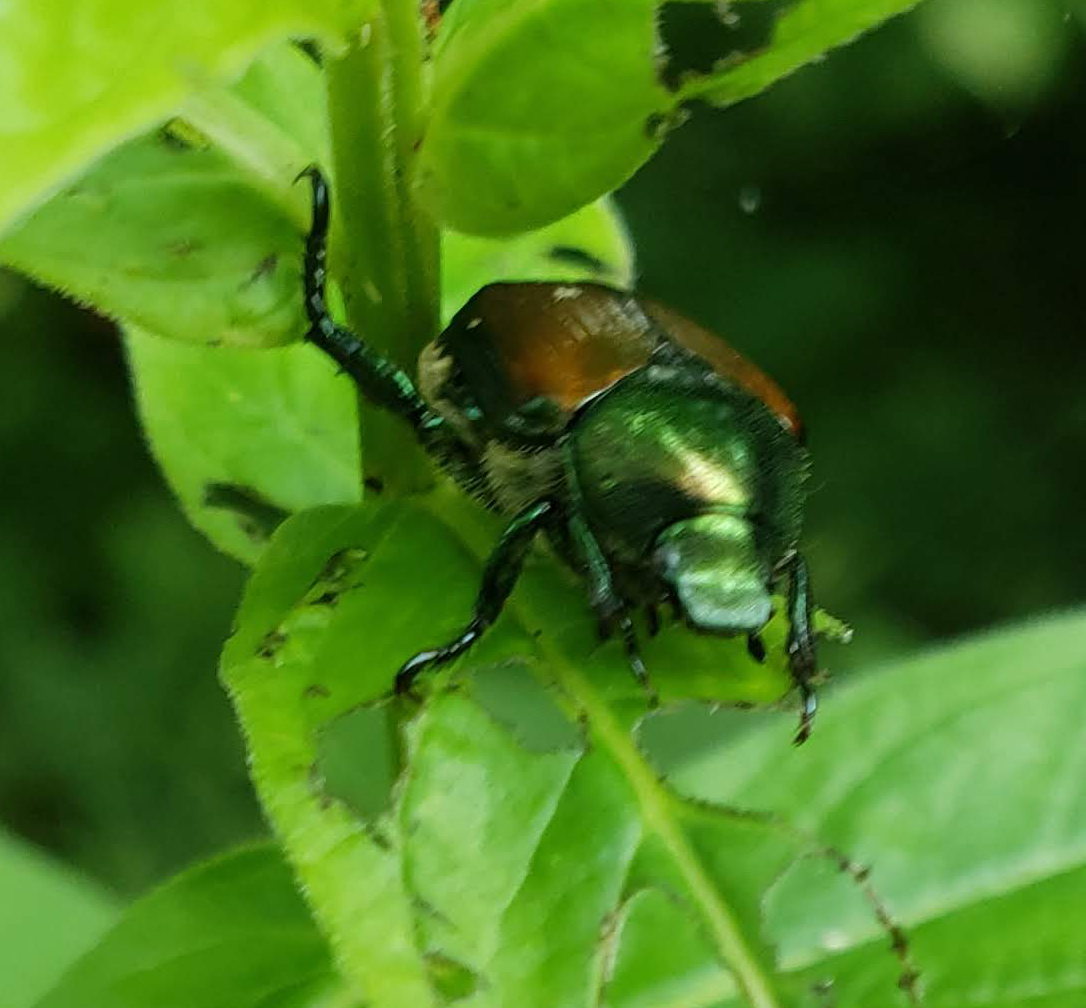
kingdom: Animalia
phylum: Arthropoda
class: Insecta
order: Coleoptera
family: Scarabaeidae
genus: Popillia
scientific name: Popillia japonica
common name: Japanese beetle
